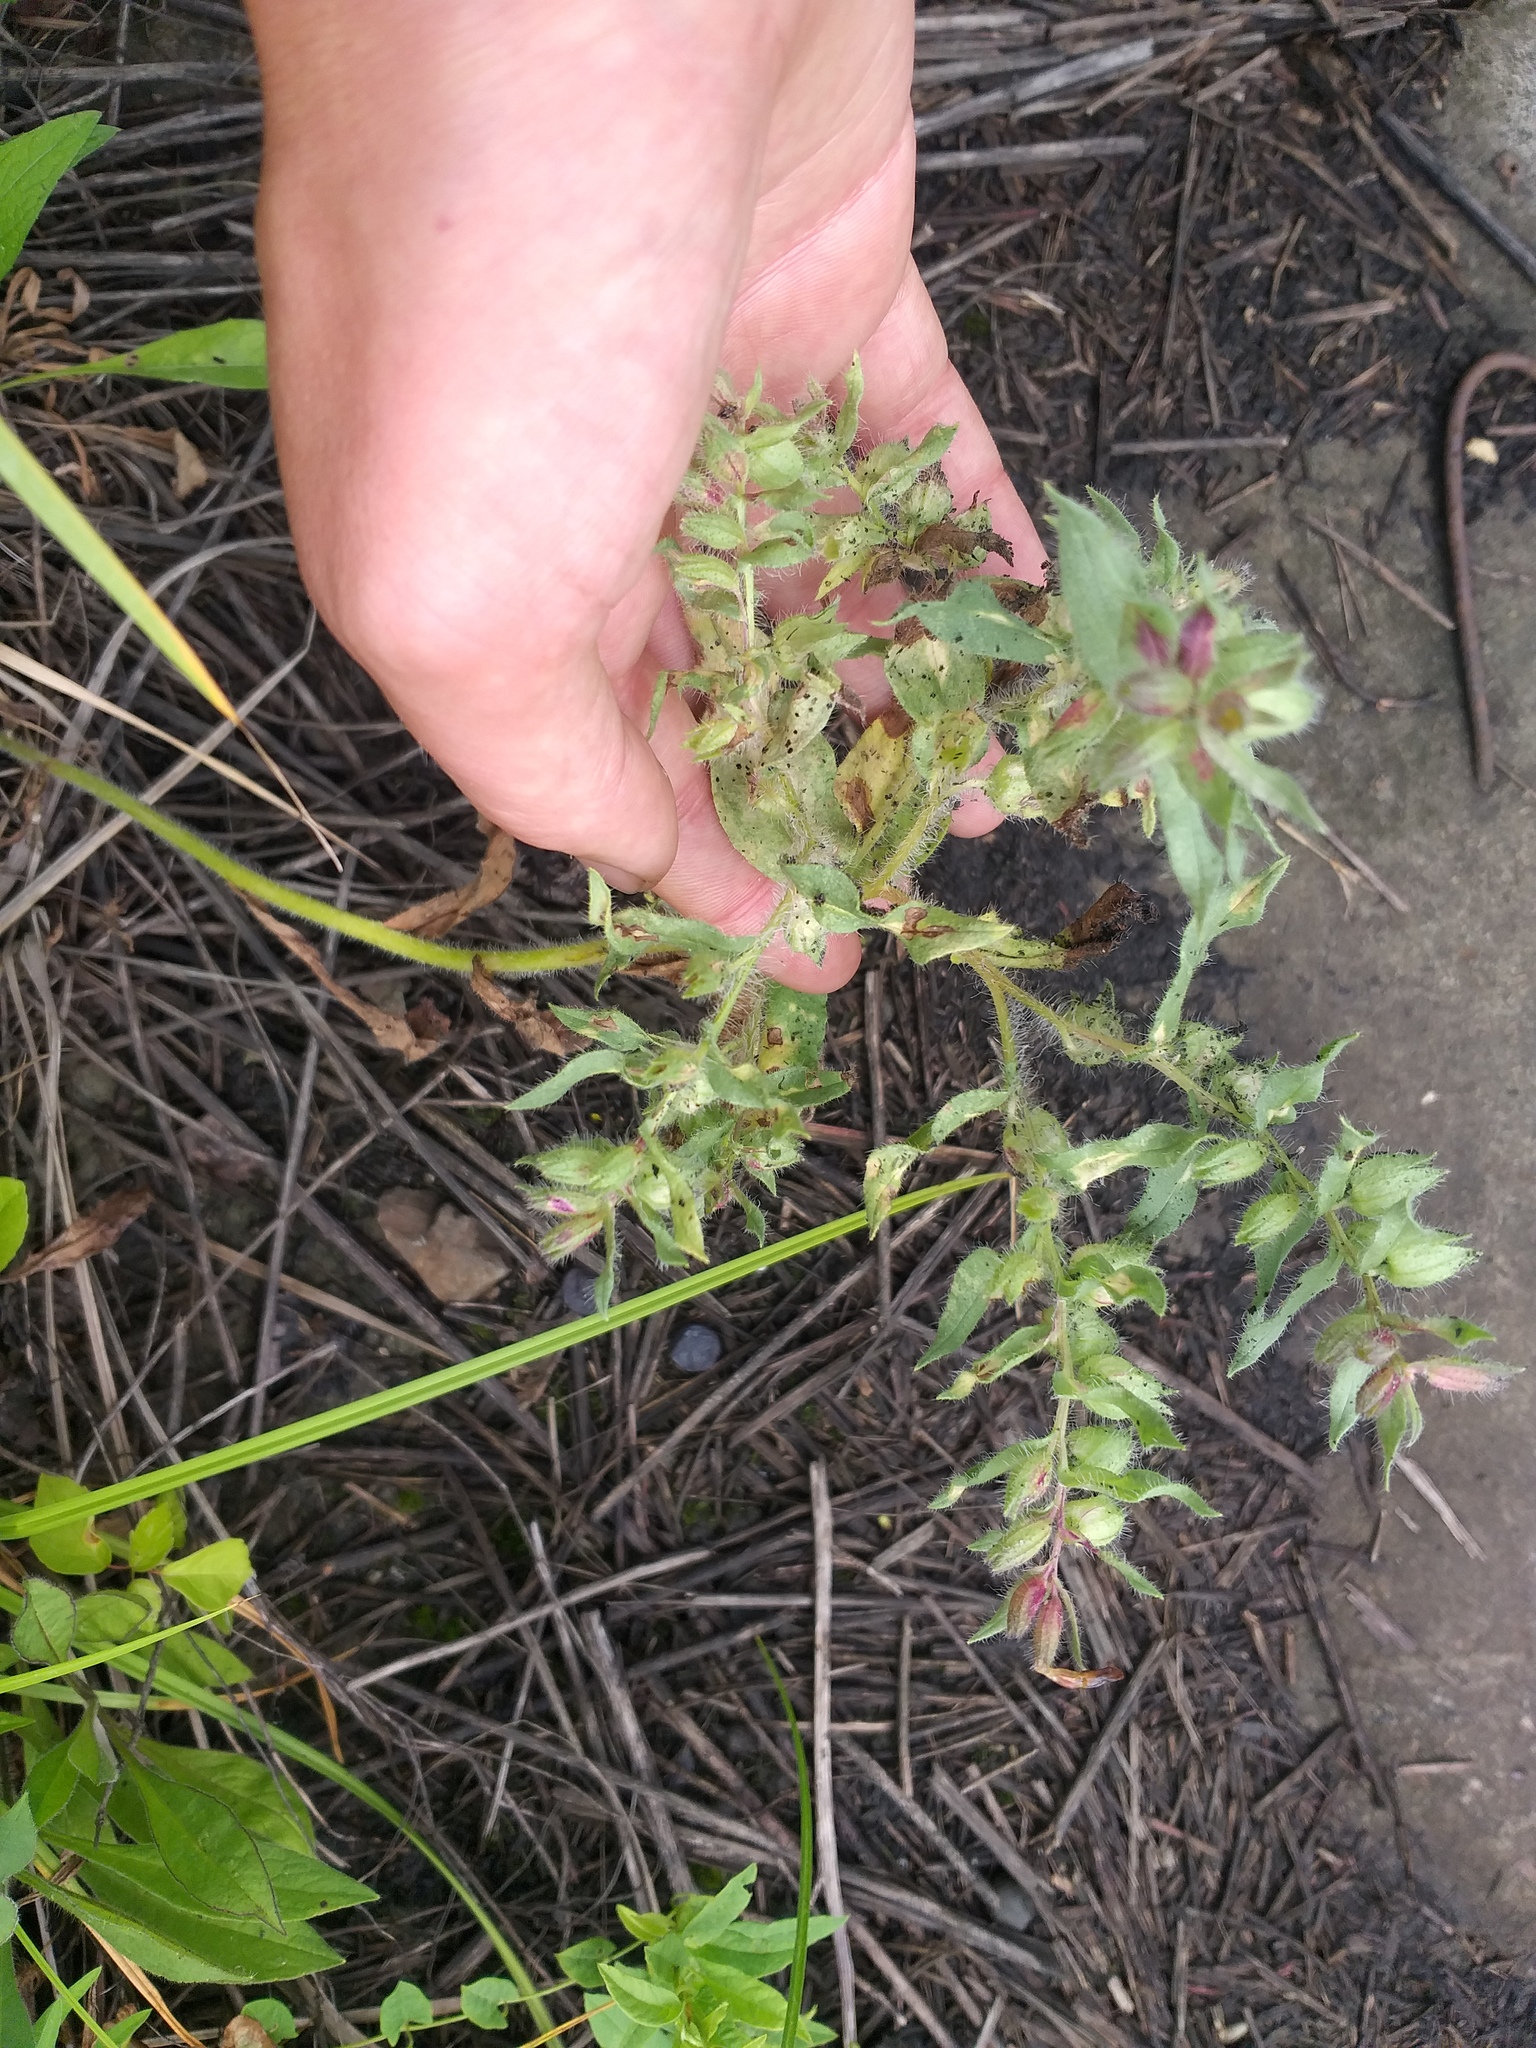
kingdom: Plantae
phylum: Tracheophyta
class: Magnoliopsida
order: Boraginales
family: Boraginaceae
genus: Nonea
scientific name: Nonea pulla
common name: Brown nonea
